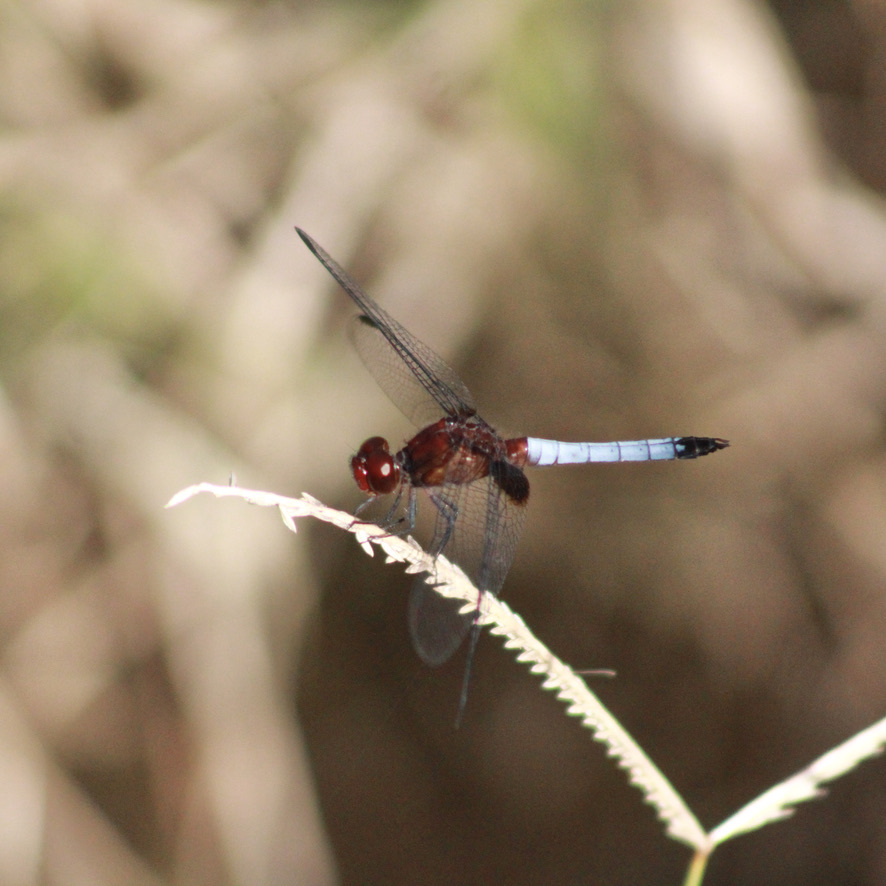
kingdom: Animalia
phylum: Arthropoda
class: Insecta
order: Odonata
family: Libellulidae
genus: Erythrodiplax
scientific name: Erythrodiplax fusca
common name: Red-faced dragonlet
